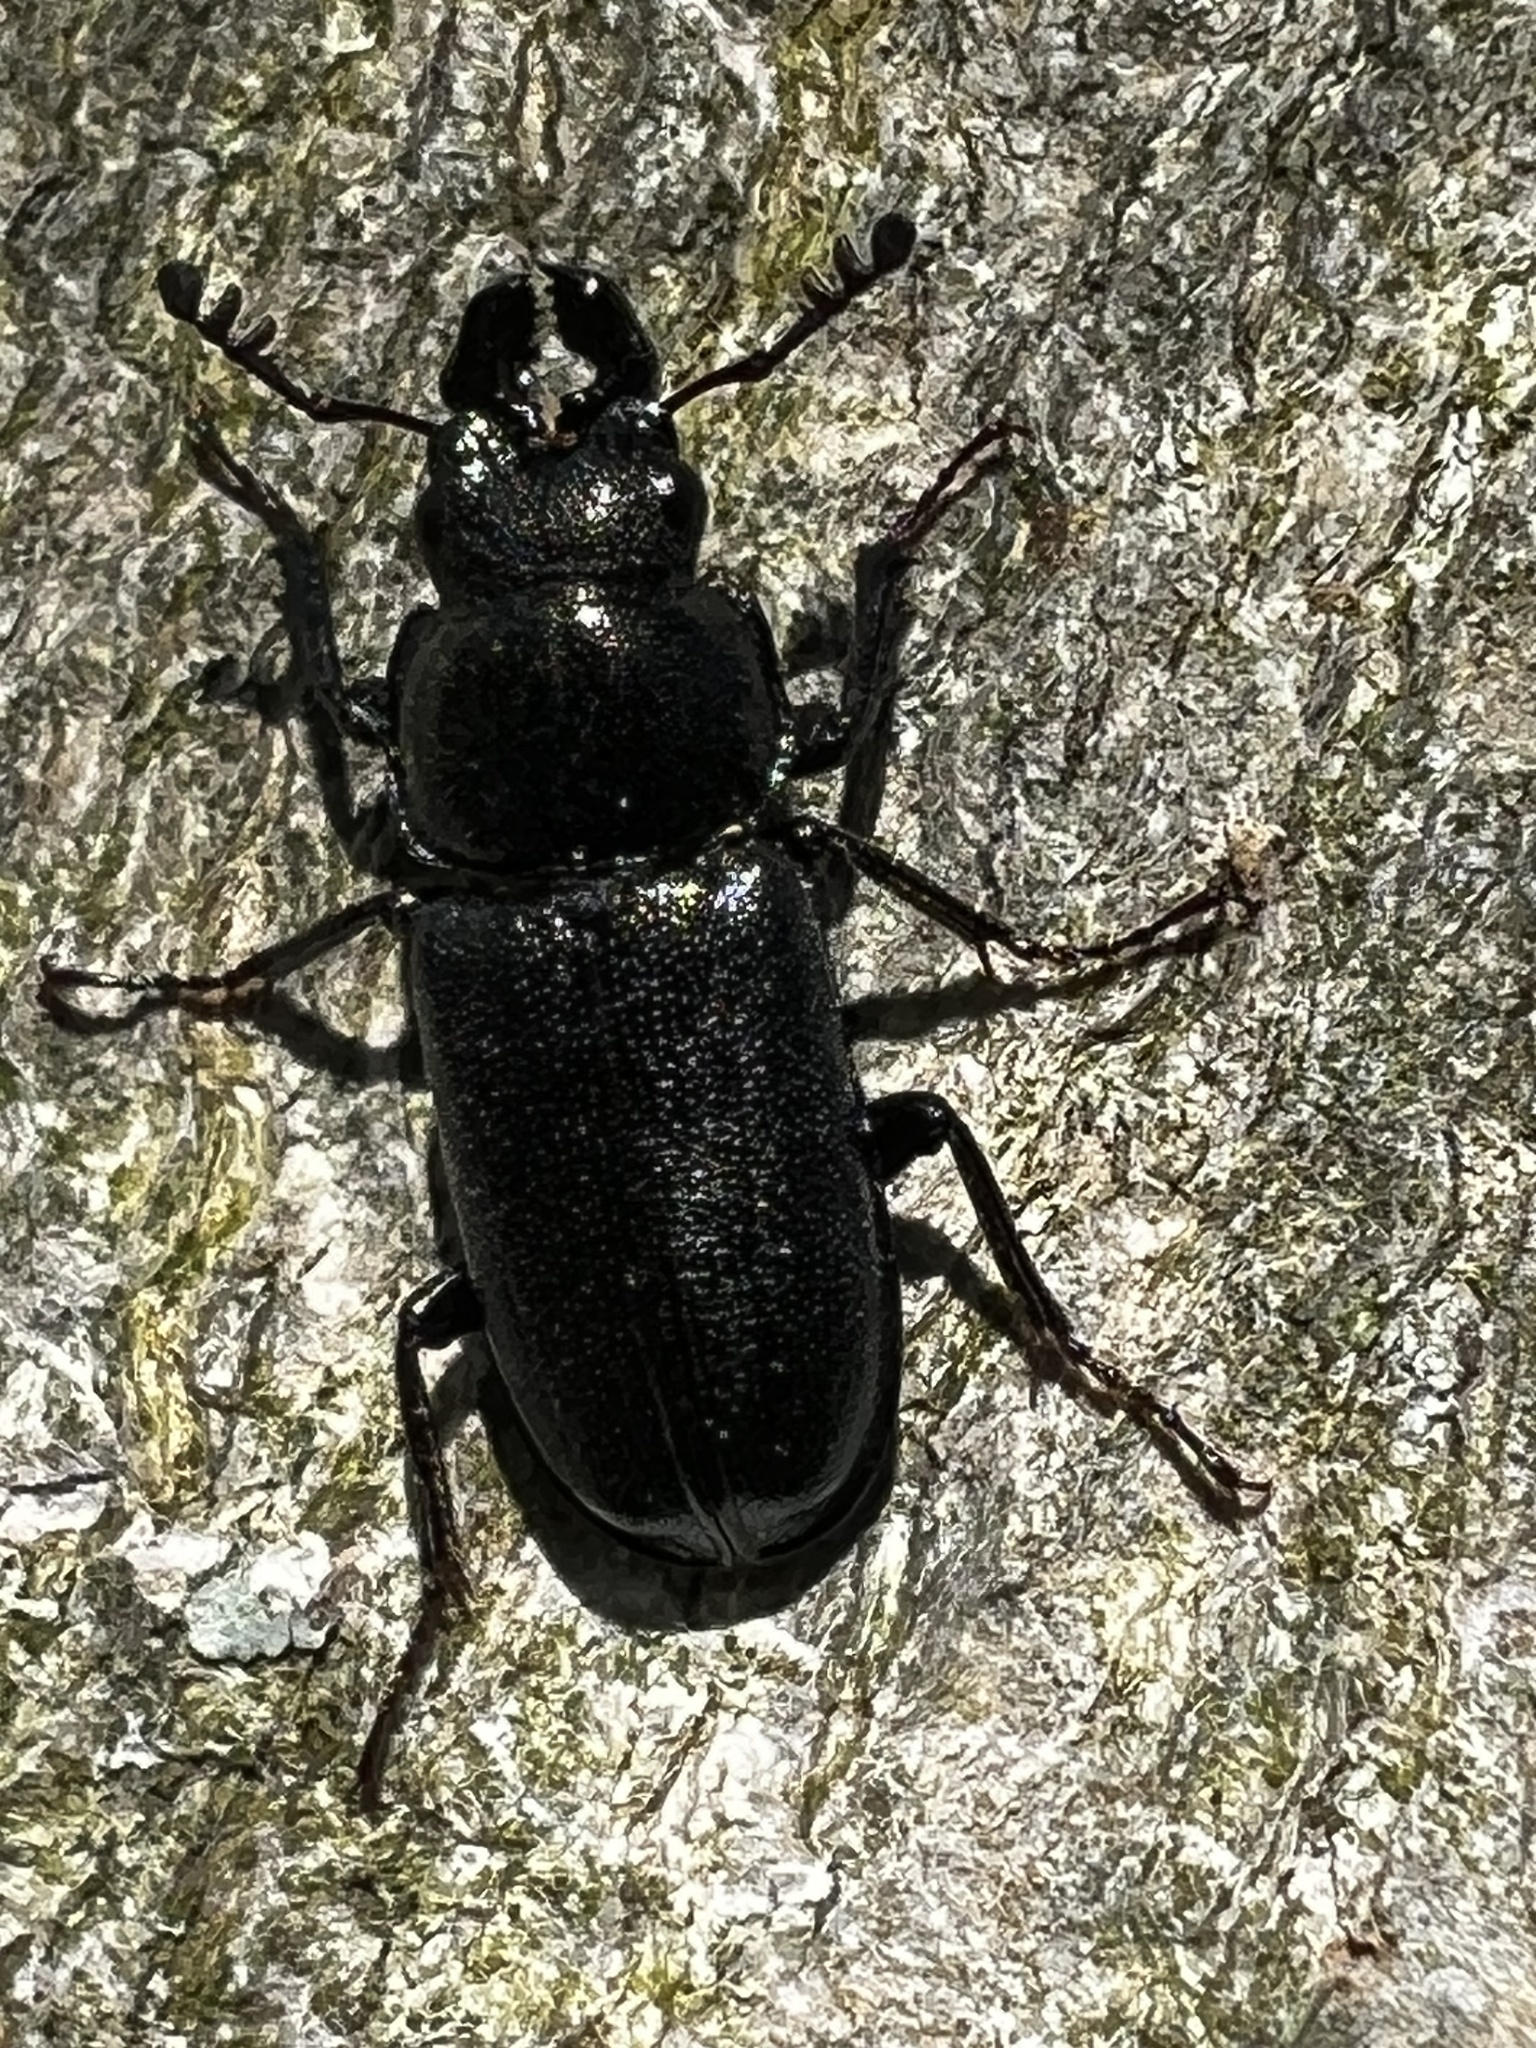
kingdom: Animalia
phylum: Arthropoda
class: Insecta
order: Coleoptera
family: Lucanidae
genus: Platycerus
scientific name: Platycerus quercus
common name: Oak stag beetle
